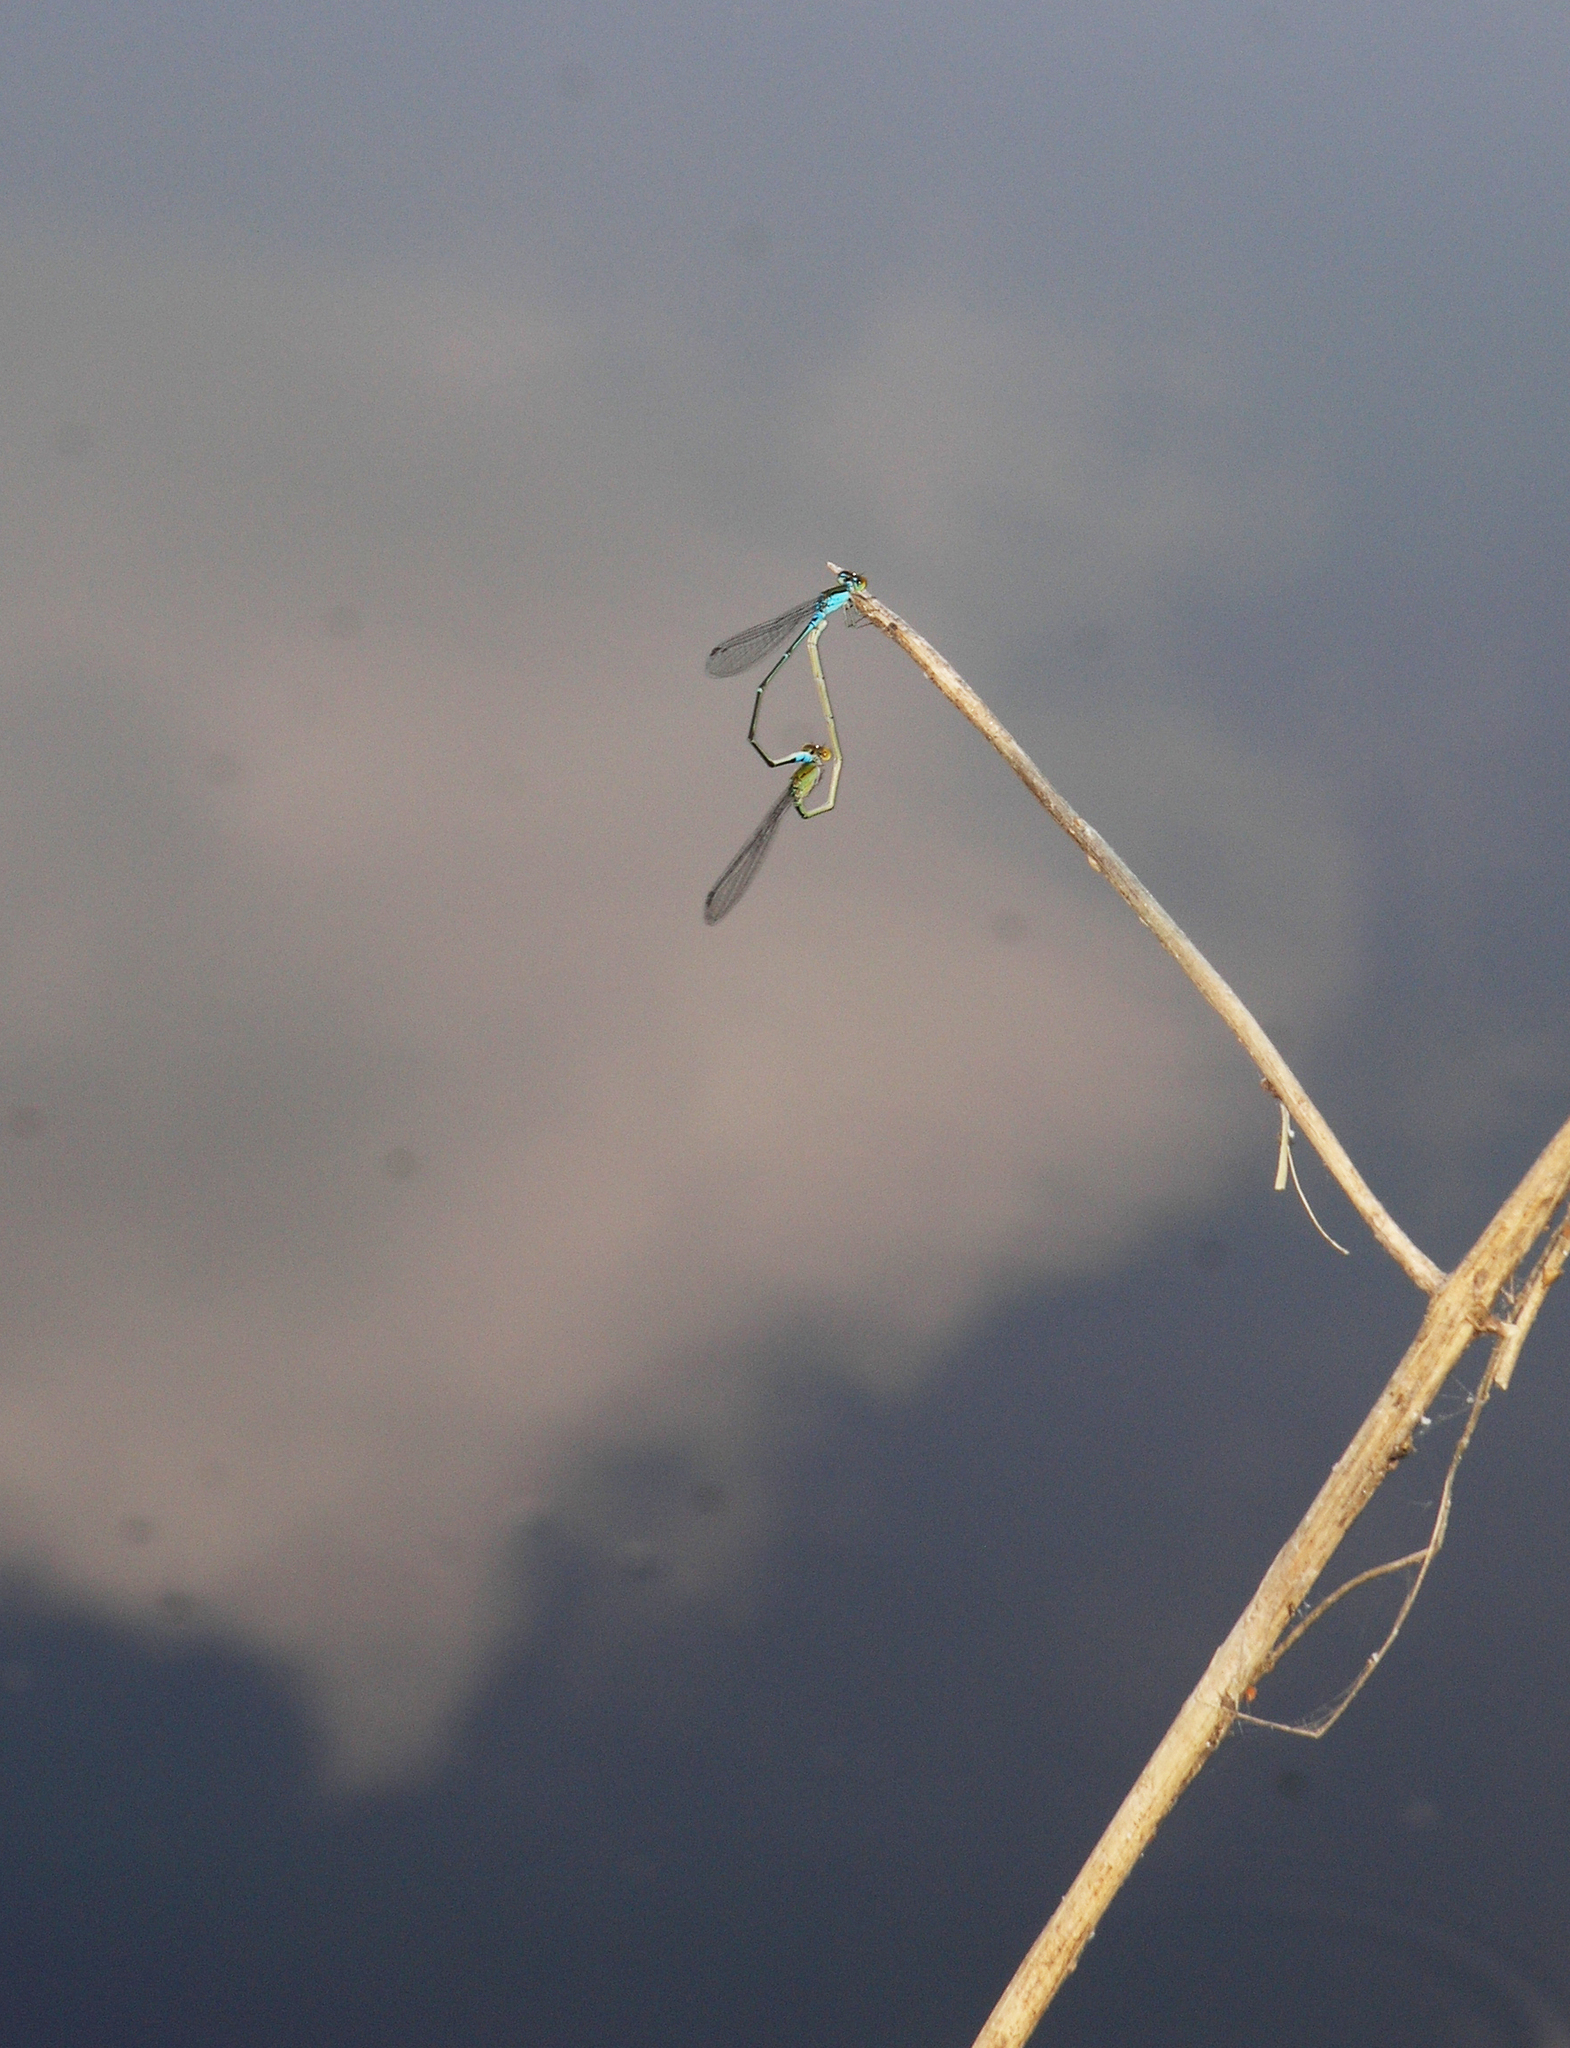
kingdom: Animalia
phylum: Arthropoda
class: Insecta
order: Odonata
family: Coenagrionidae
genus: Pseudagrion
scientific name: Pseudagrion rubriceps
